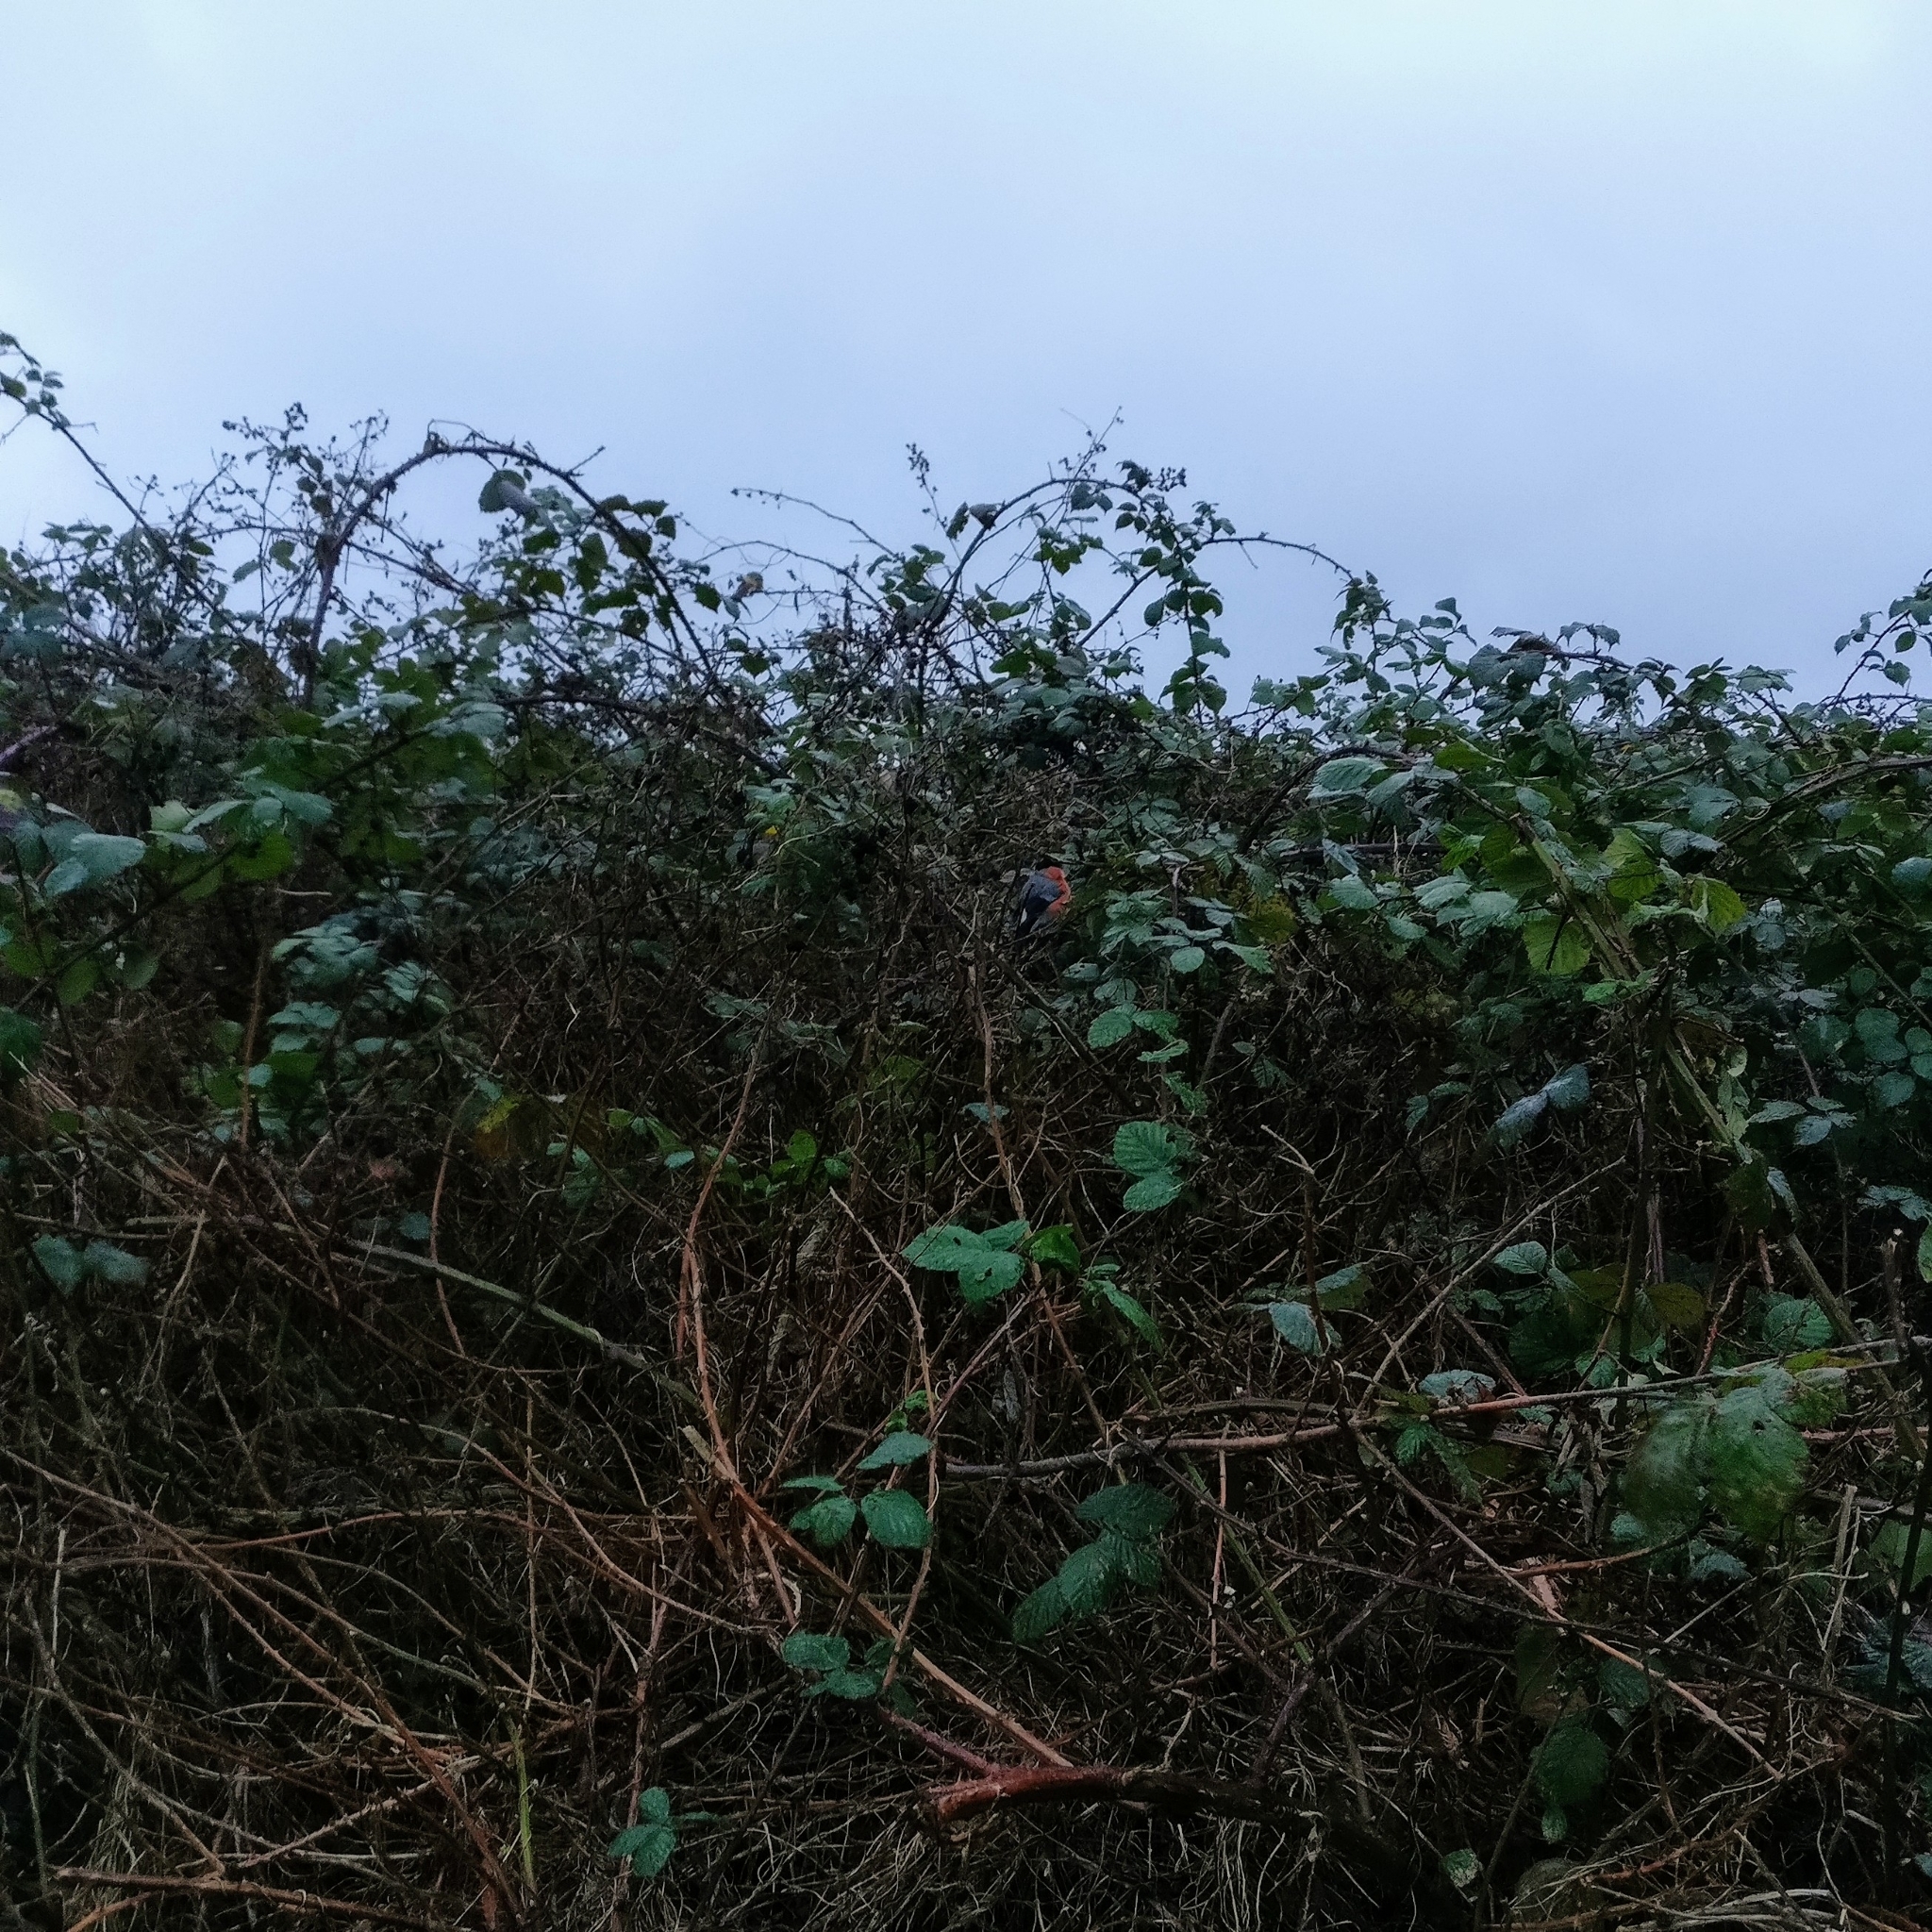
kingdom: Animalia
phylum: Chordata
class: Aves
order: Passeriformes
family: Fringillidae
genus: Pyrrhula
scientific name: Pyrrhula pyrrhula
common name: Eurasian bullfinch
